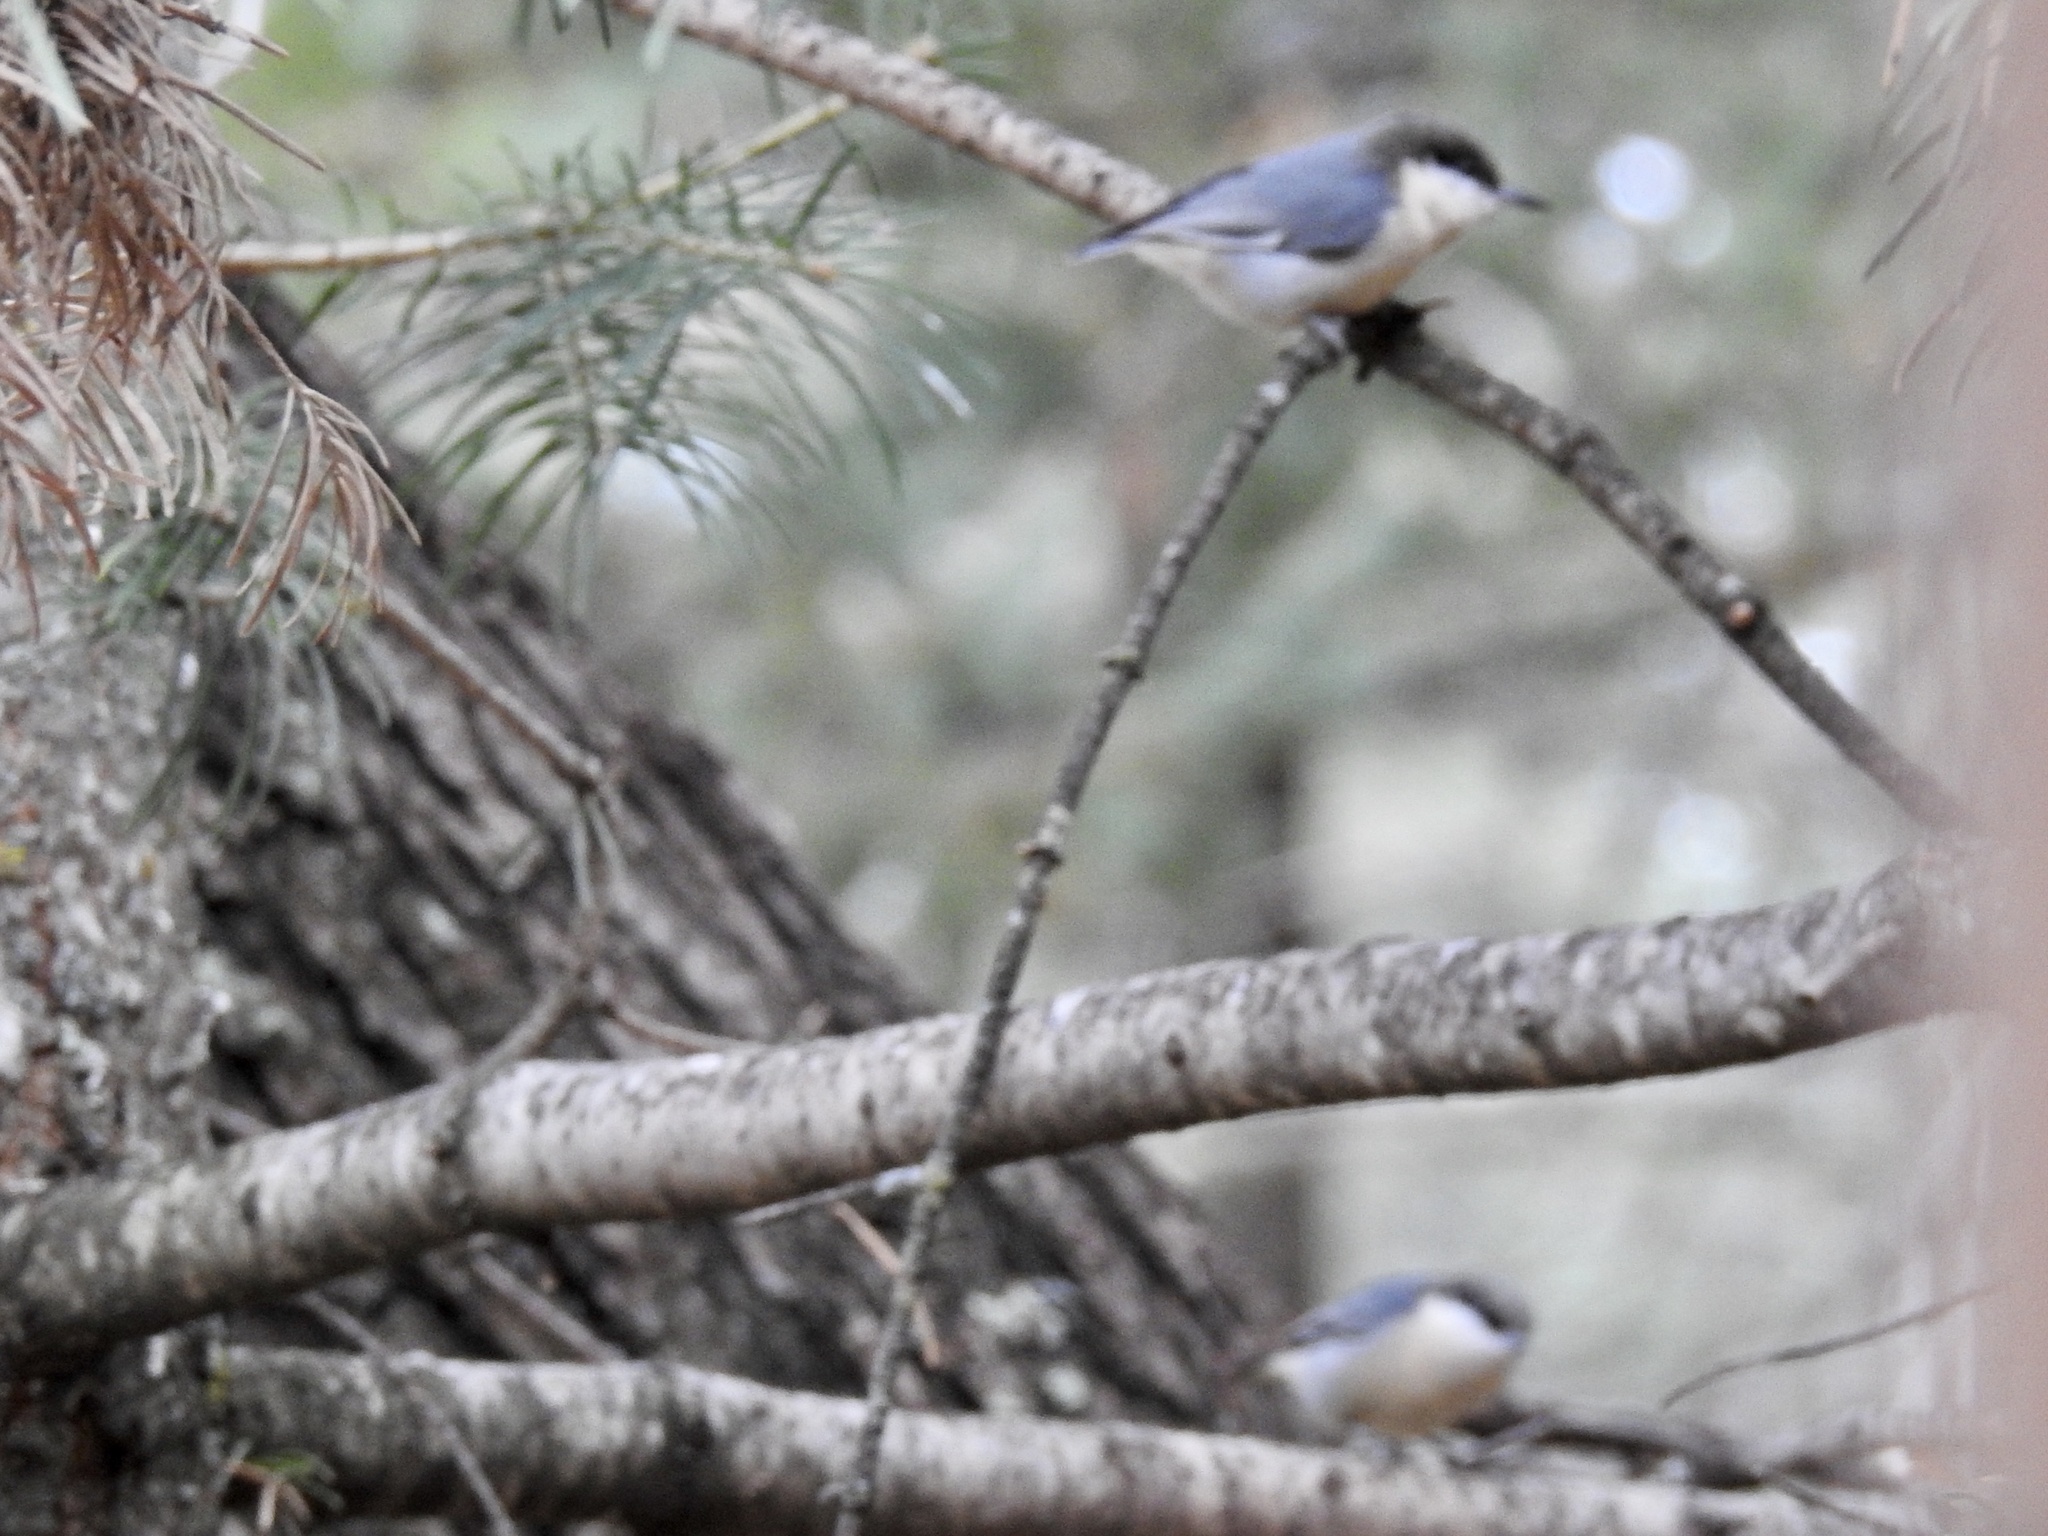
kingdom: Animalia
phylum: Chordata
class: Aves
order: Passeriformes
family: Sittidae
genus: Sitta
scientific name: Sitta pygmaea
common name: Pygmy nuthatch
